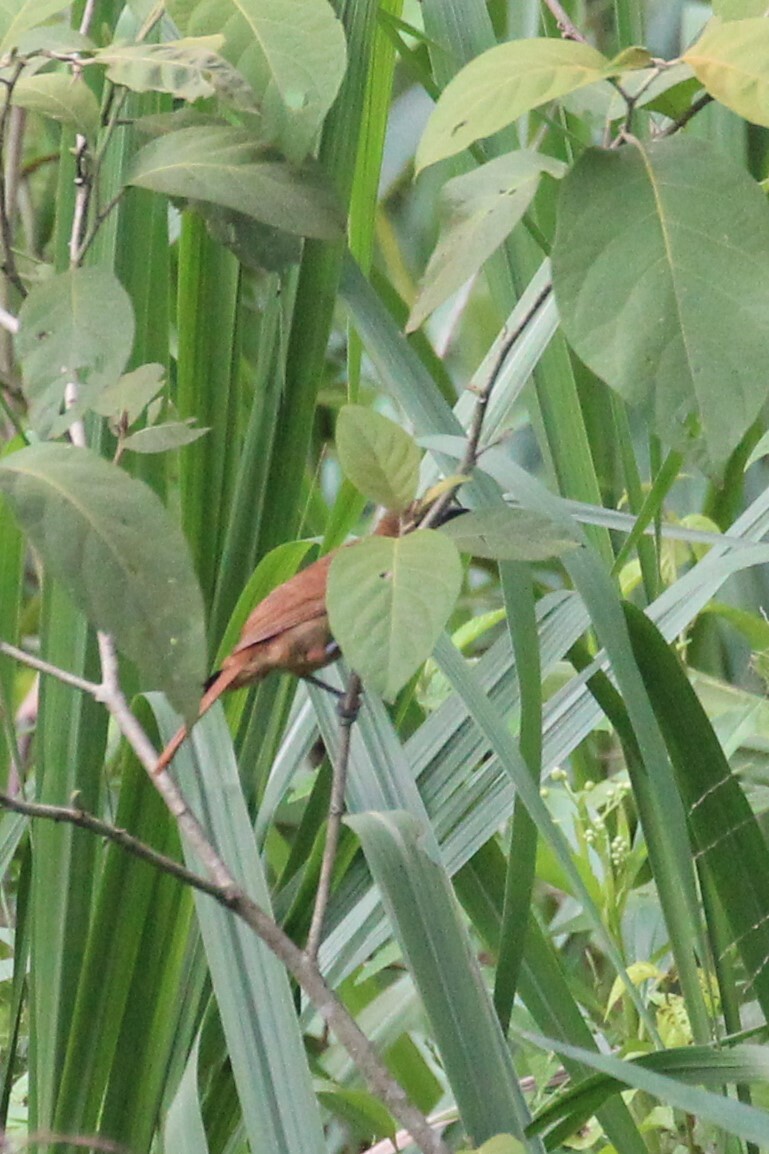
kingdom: Animalia
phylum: Chordata
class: Aves
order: Passeriformes
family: Thraupidae
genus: Tachyphonus
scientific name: Tachyphonus rufus
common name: White-lined tanager
